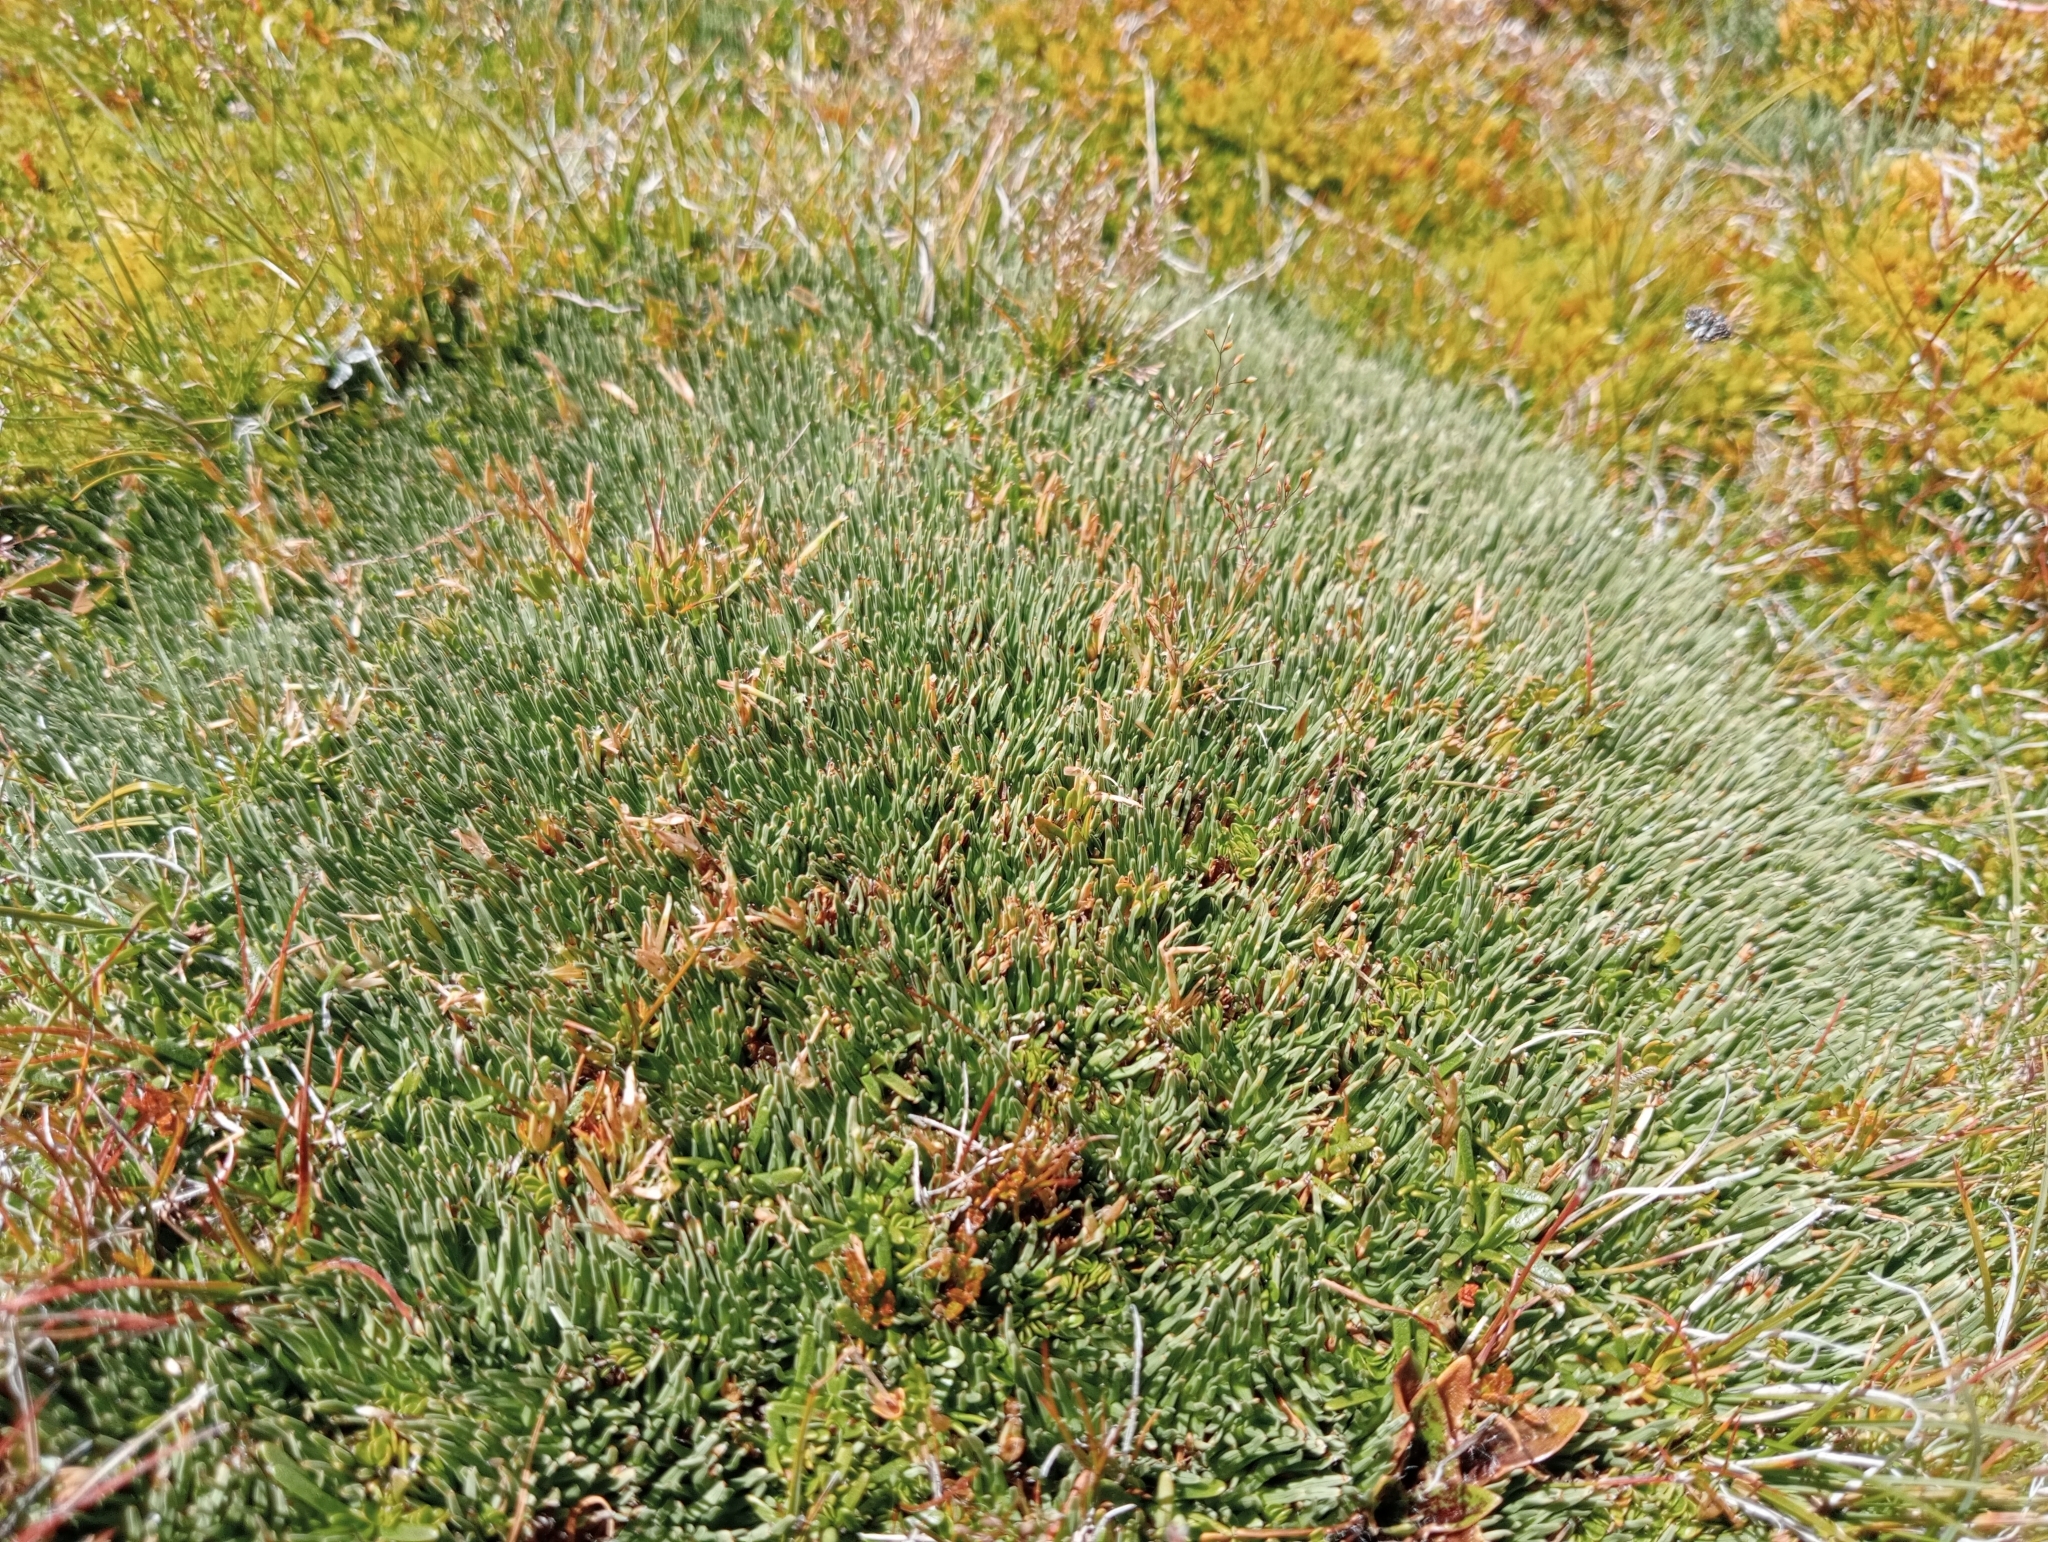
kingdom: Plantae
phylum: Tracheophyta
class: Liliopsida
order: Poales
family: Cyperaceae
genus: Oreobolus
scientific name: Oreobolus pectinatus
